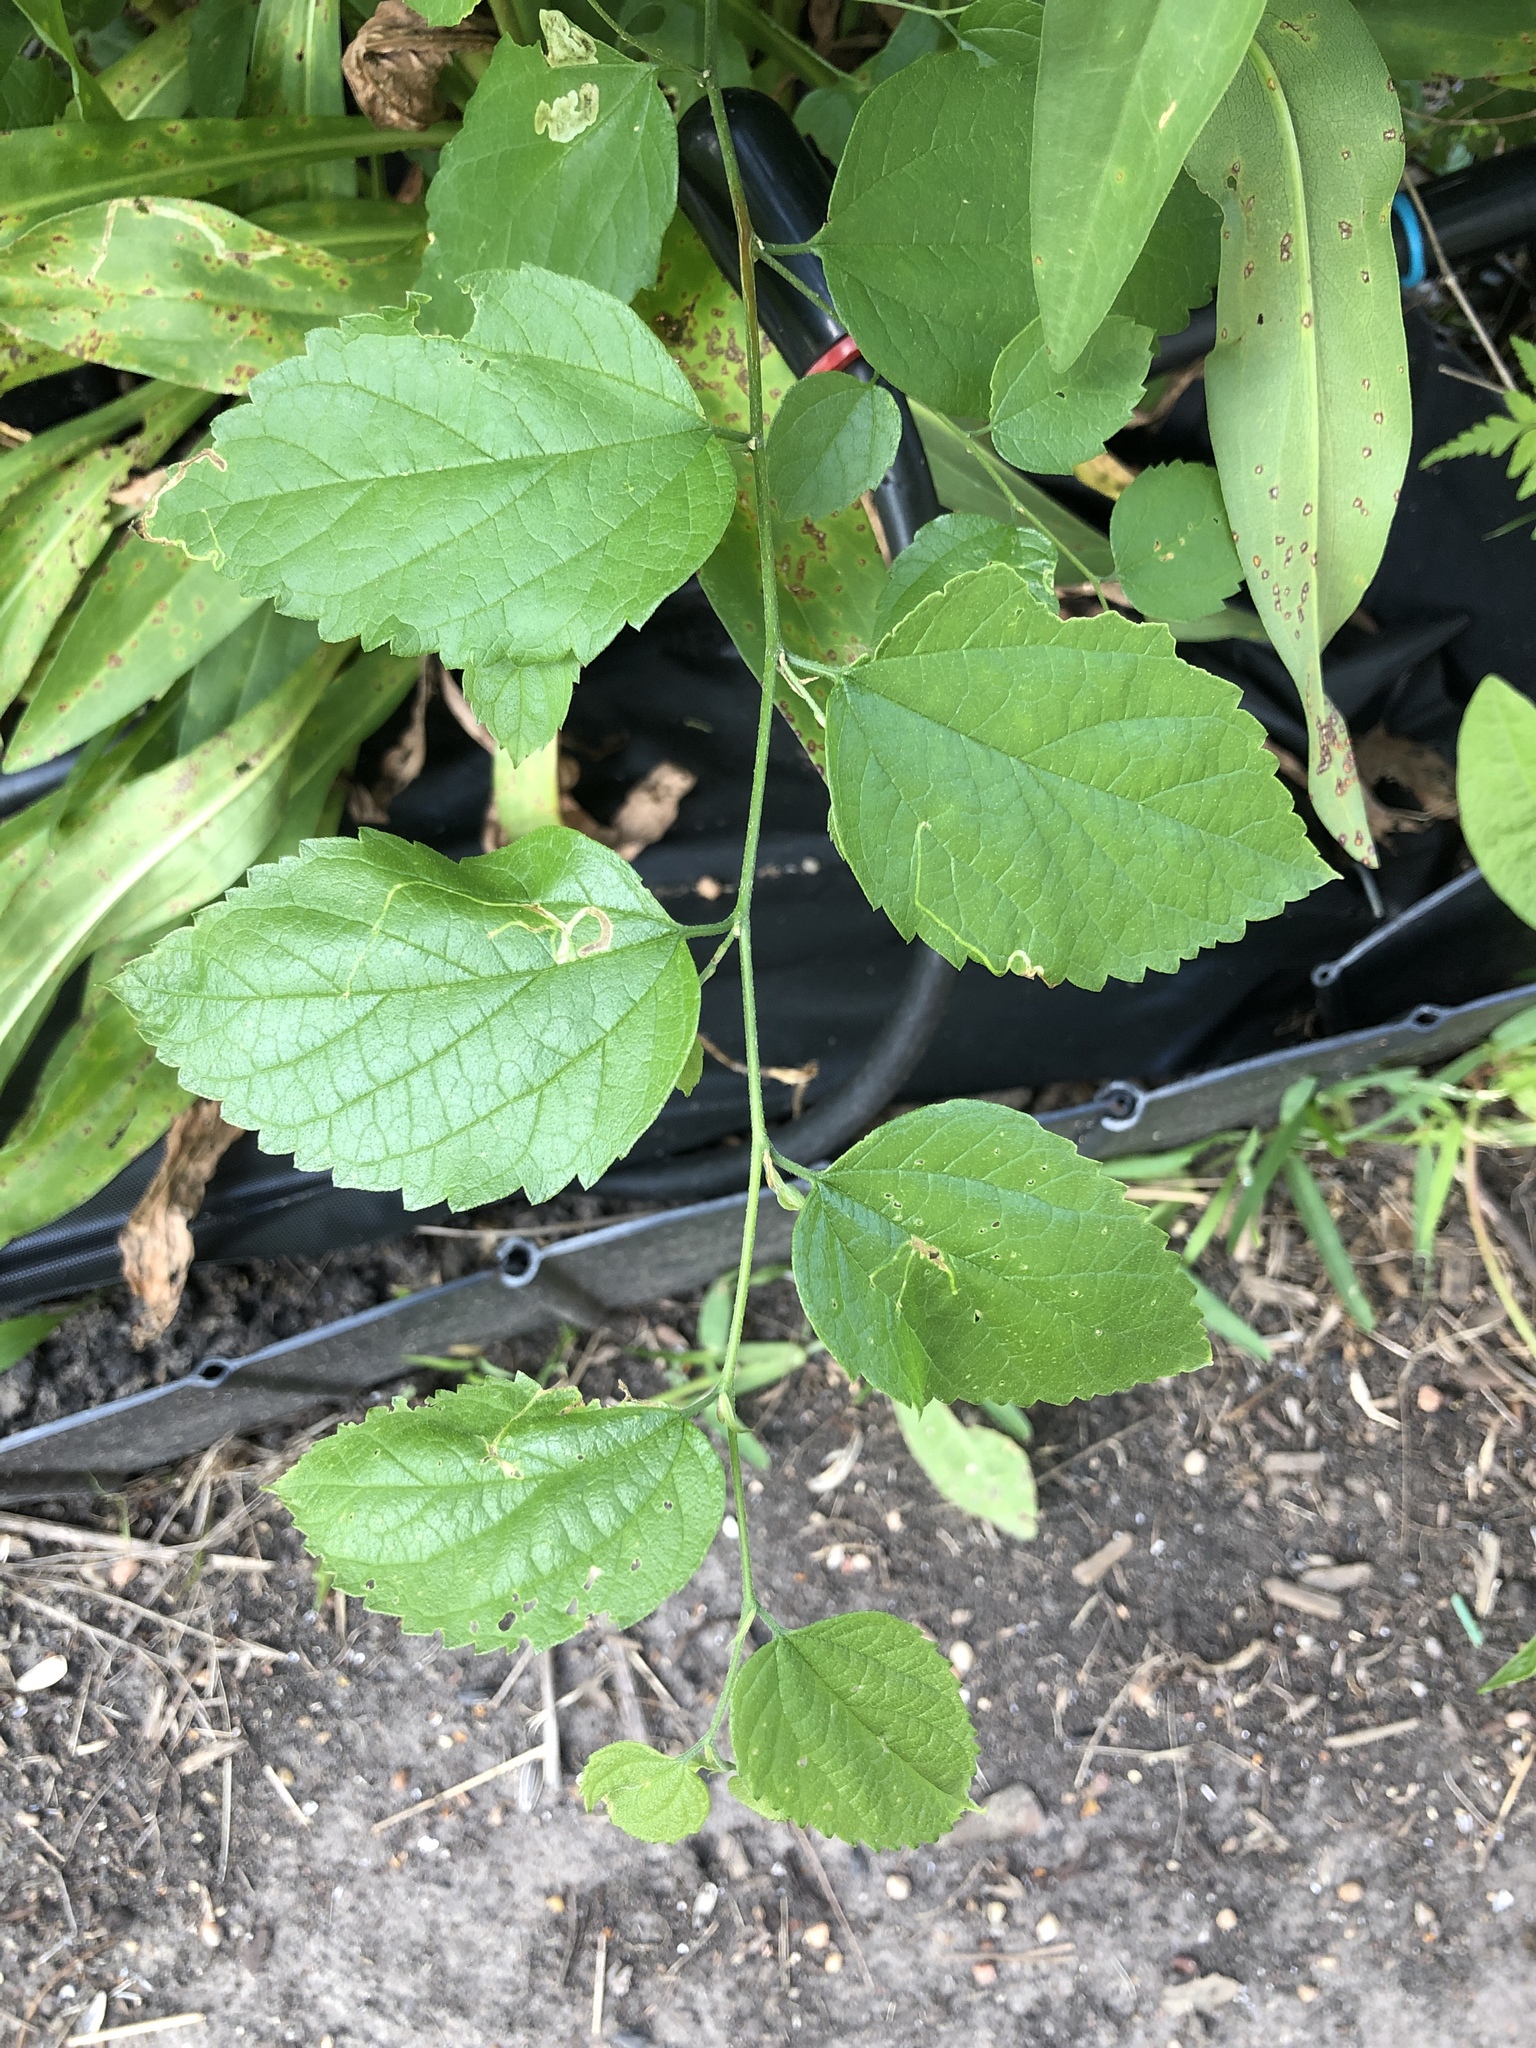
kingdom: Plantae
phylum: Tracheophyta
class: Magnoliopsida
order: Rosales
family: Cannabaceae
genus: Celtis
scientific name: Celtis laevigata
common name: Sugarberry
